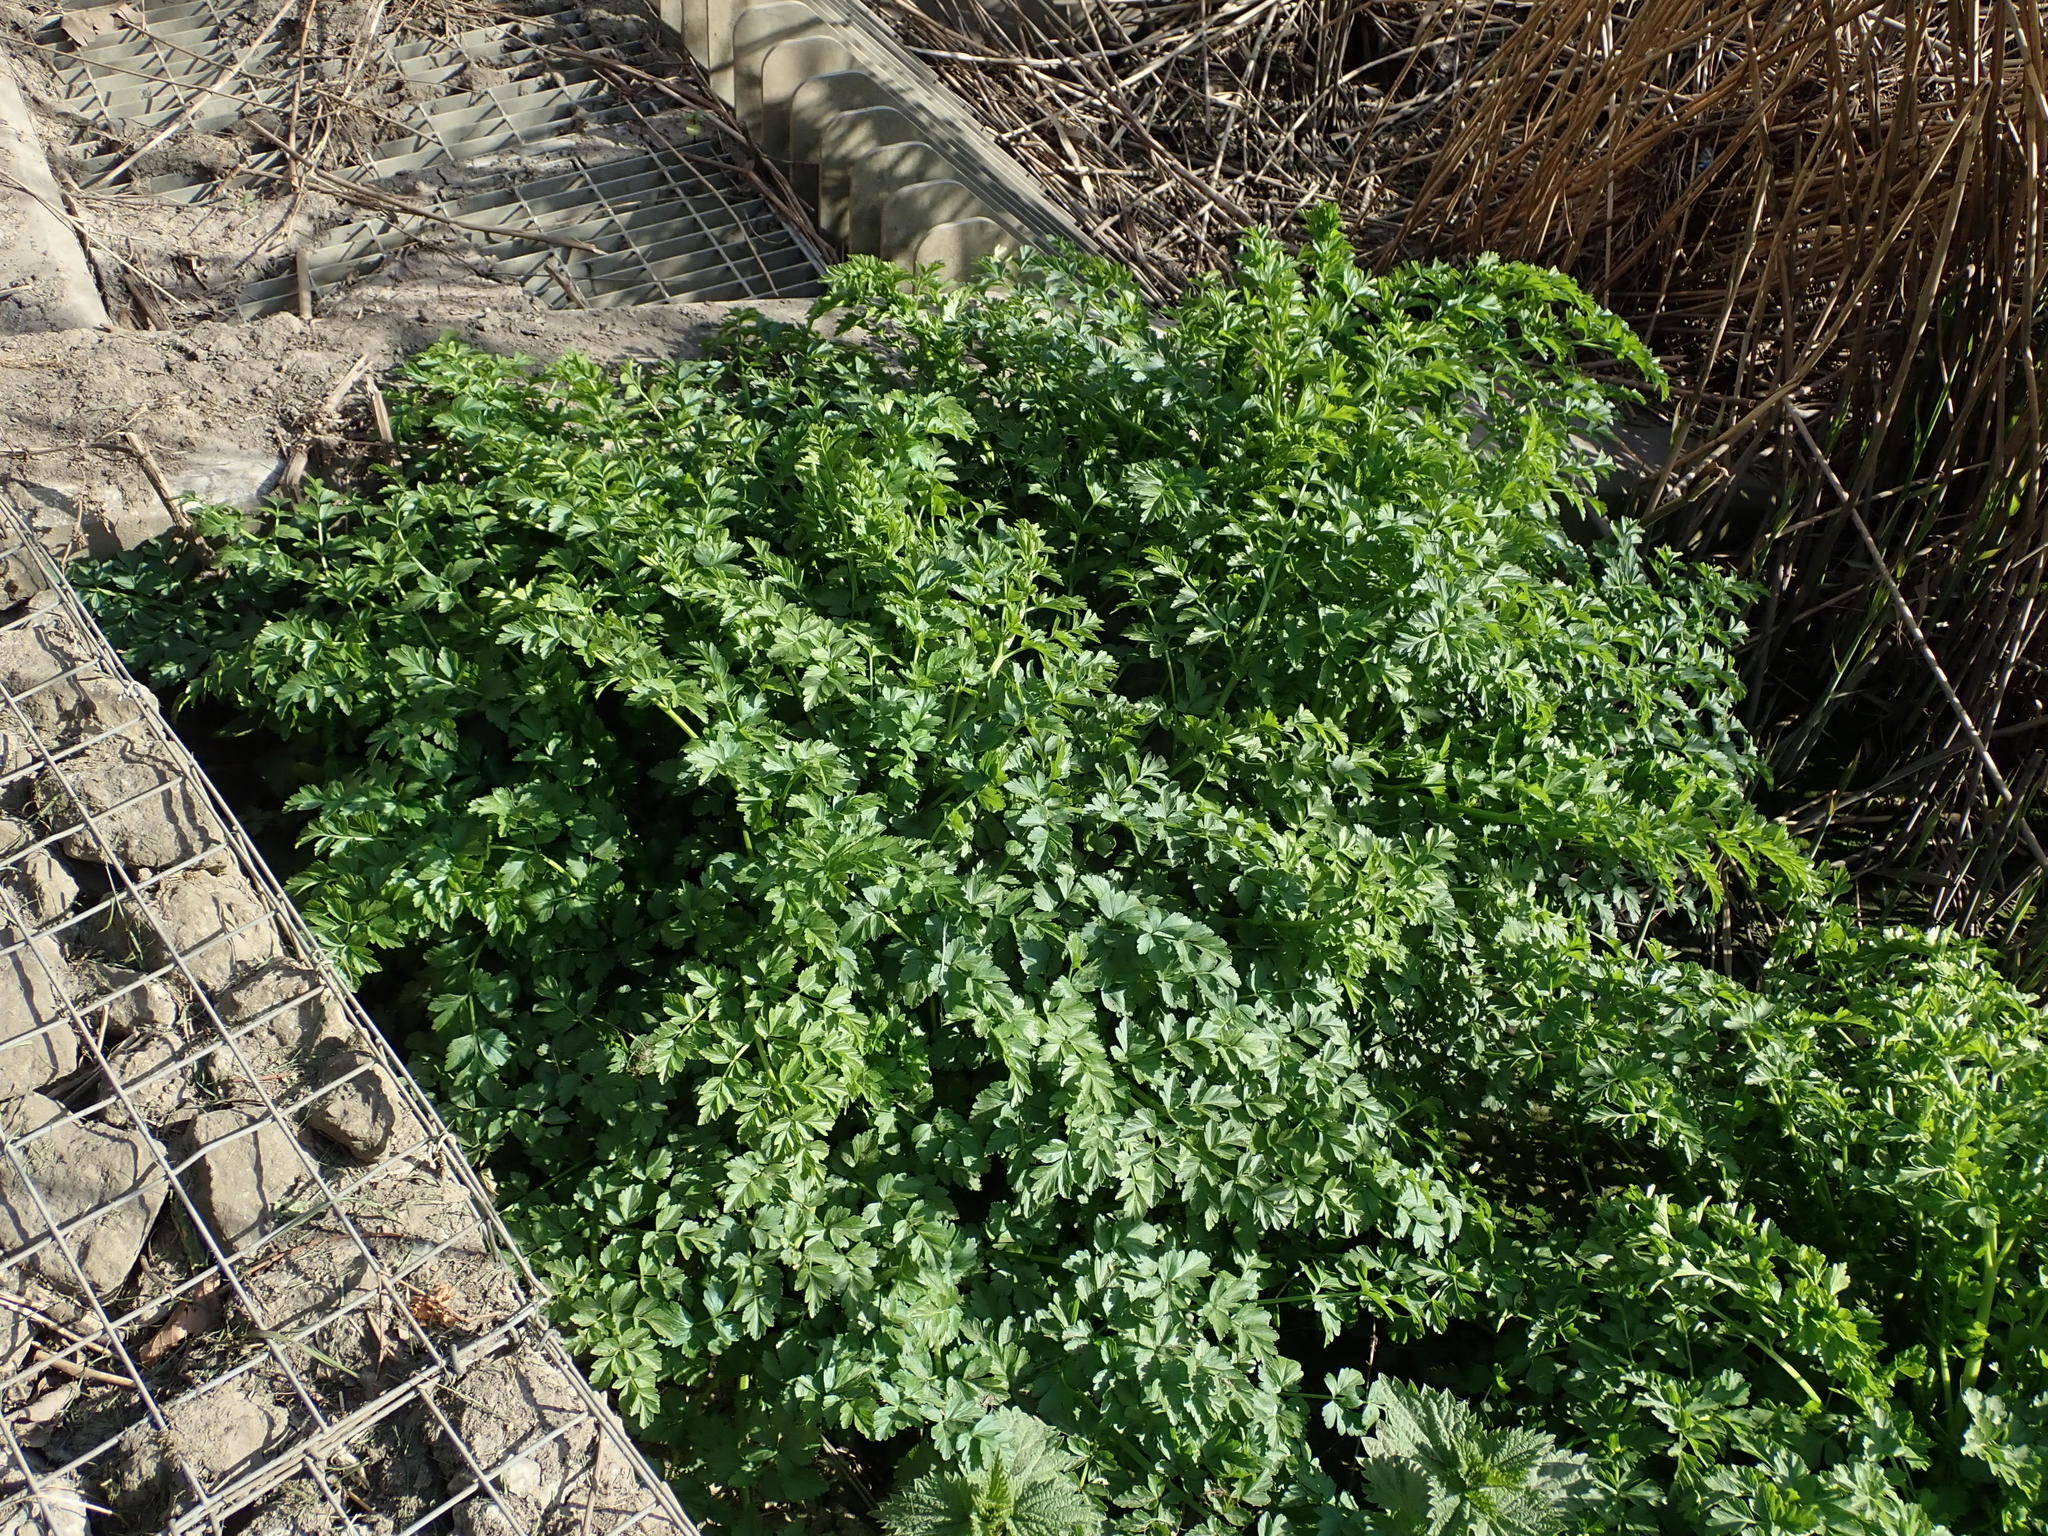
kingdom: Plantae
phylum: Tracheophyta
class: Magnoliopsida
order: Apiales
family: Apiaceae
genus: Oenanthe
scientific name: Oenanthe crocata
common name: Hemlock water-dropwort
